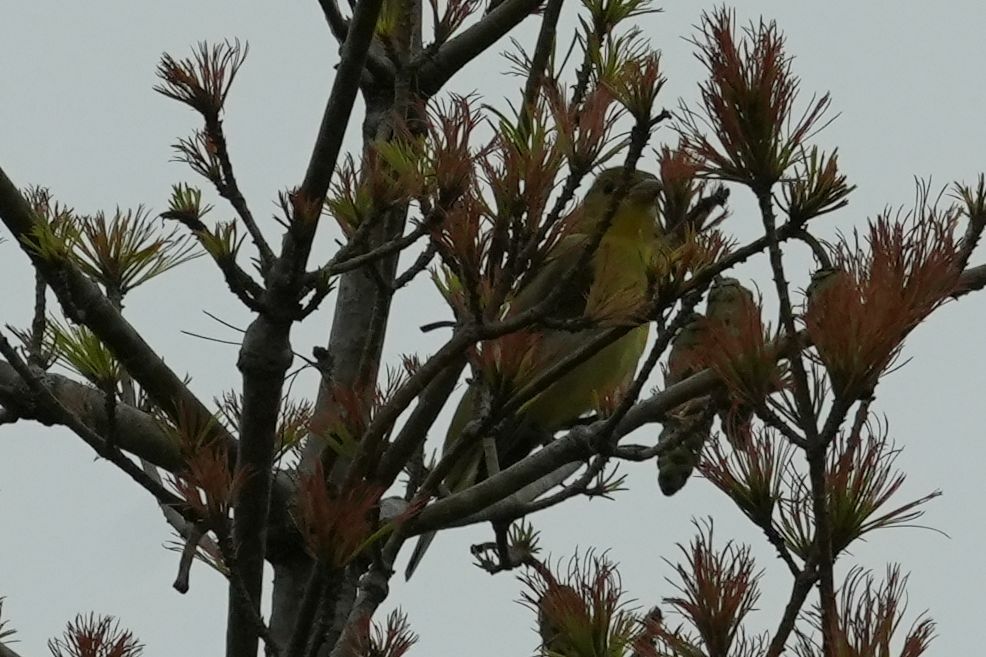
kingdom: Animalia
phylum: Chordata
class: Aves
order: Passeriformes
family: Cardinalidae
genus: Piranga
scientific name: Piranga olivacea
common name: Scarlet tanager
